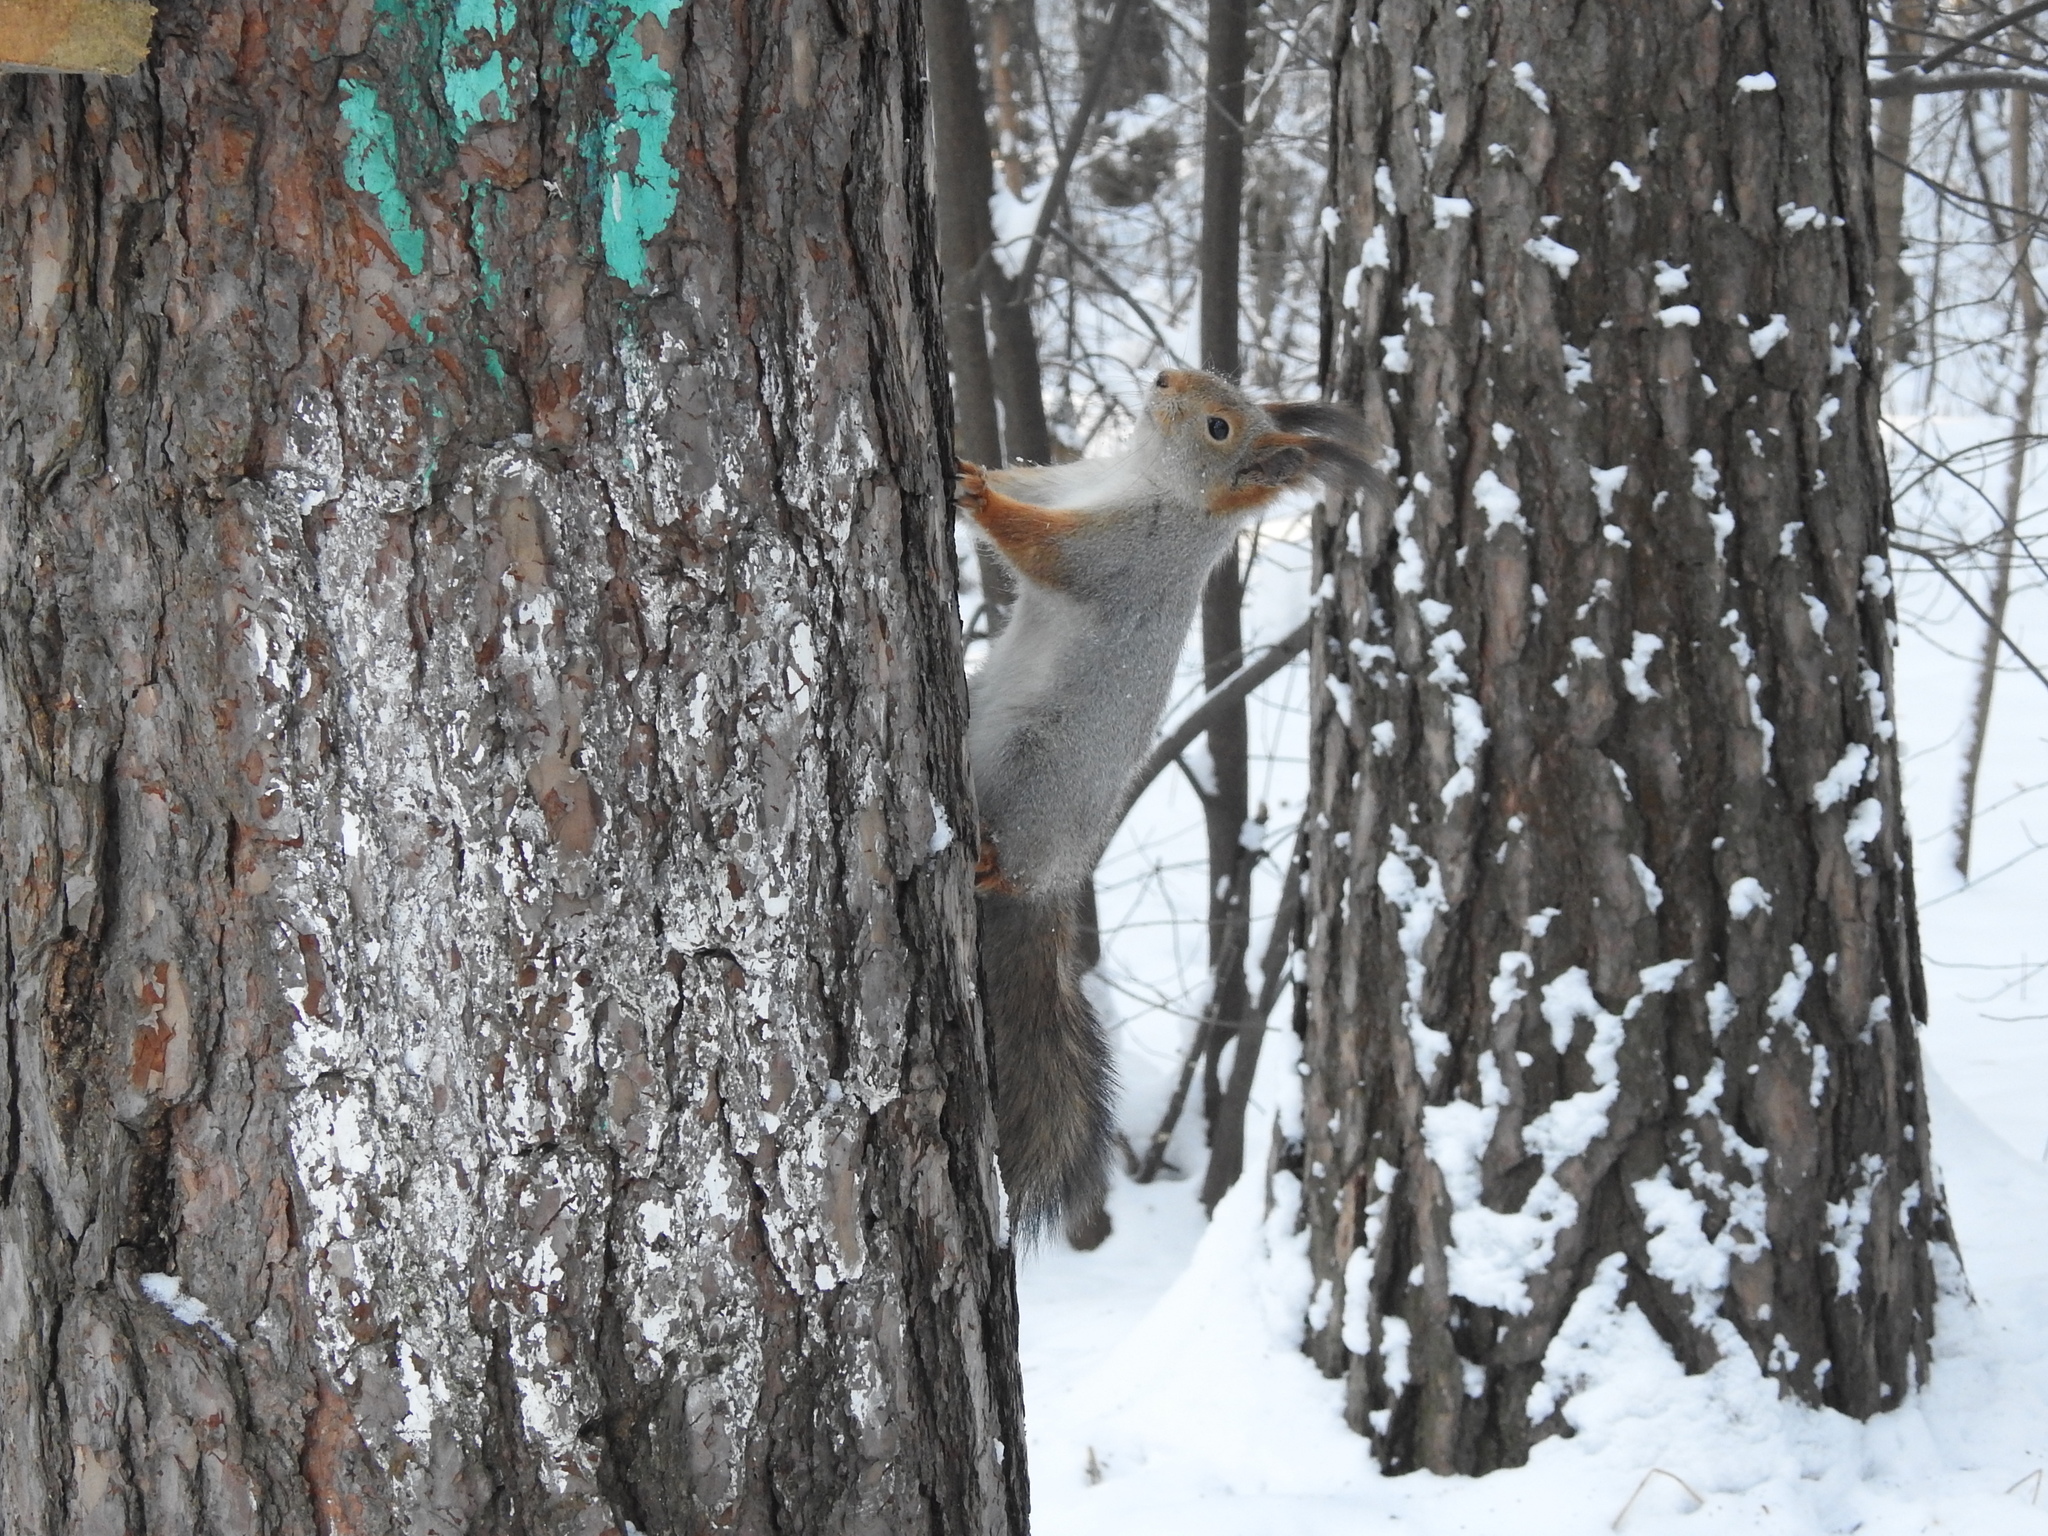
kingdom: Animalia
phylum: Chordata
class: Mammalia
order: Rodentia
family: Sciuridae
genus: Sciurus
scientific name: Sciurus vulgaris
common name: Eurasian red squirrel
